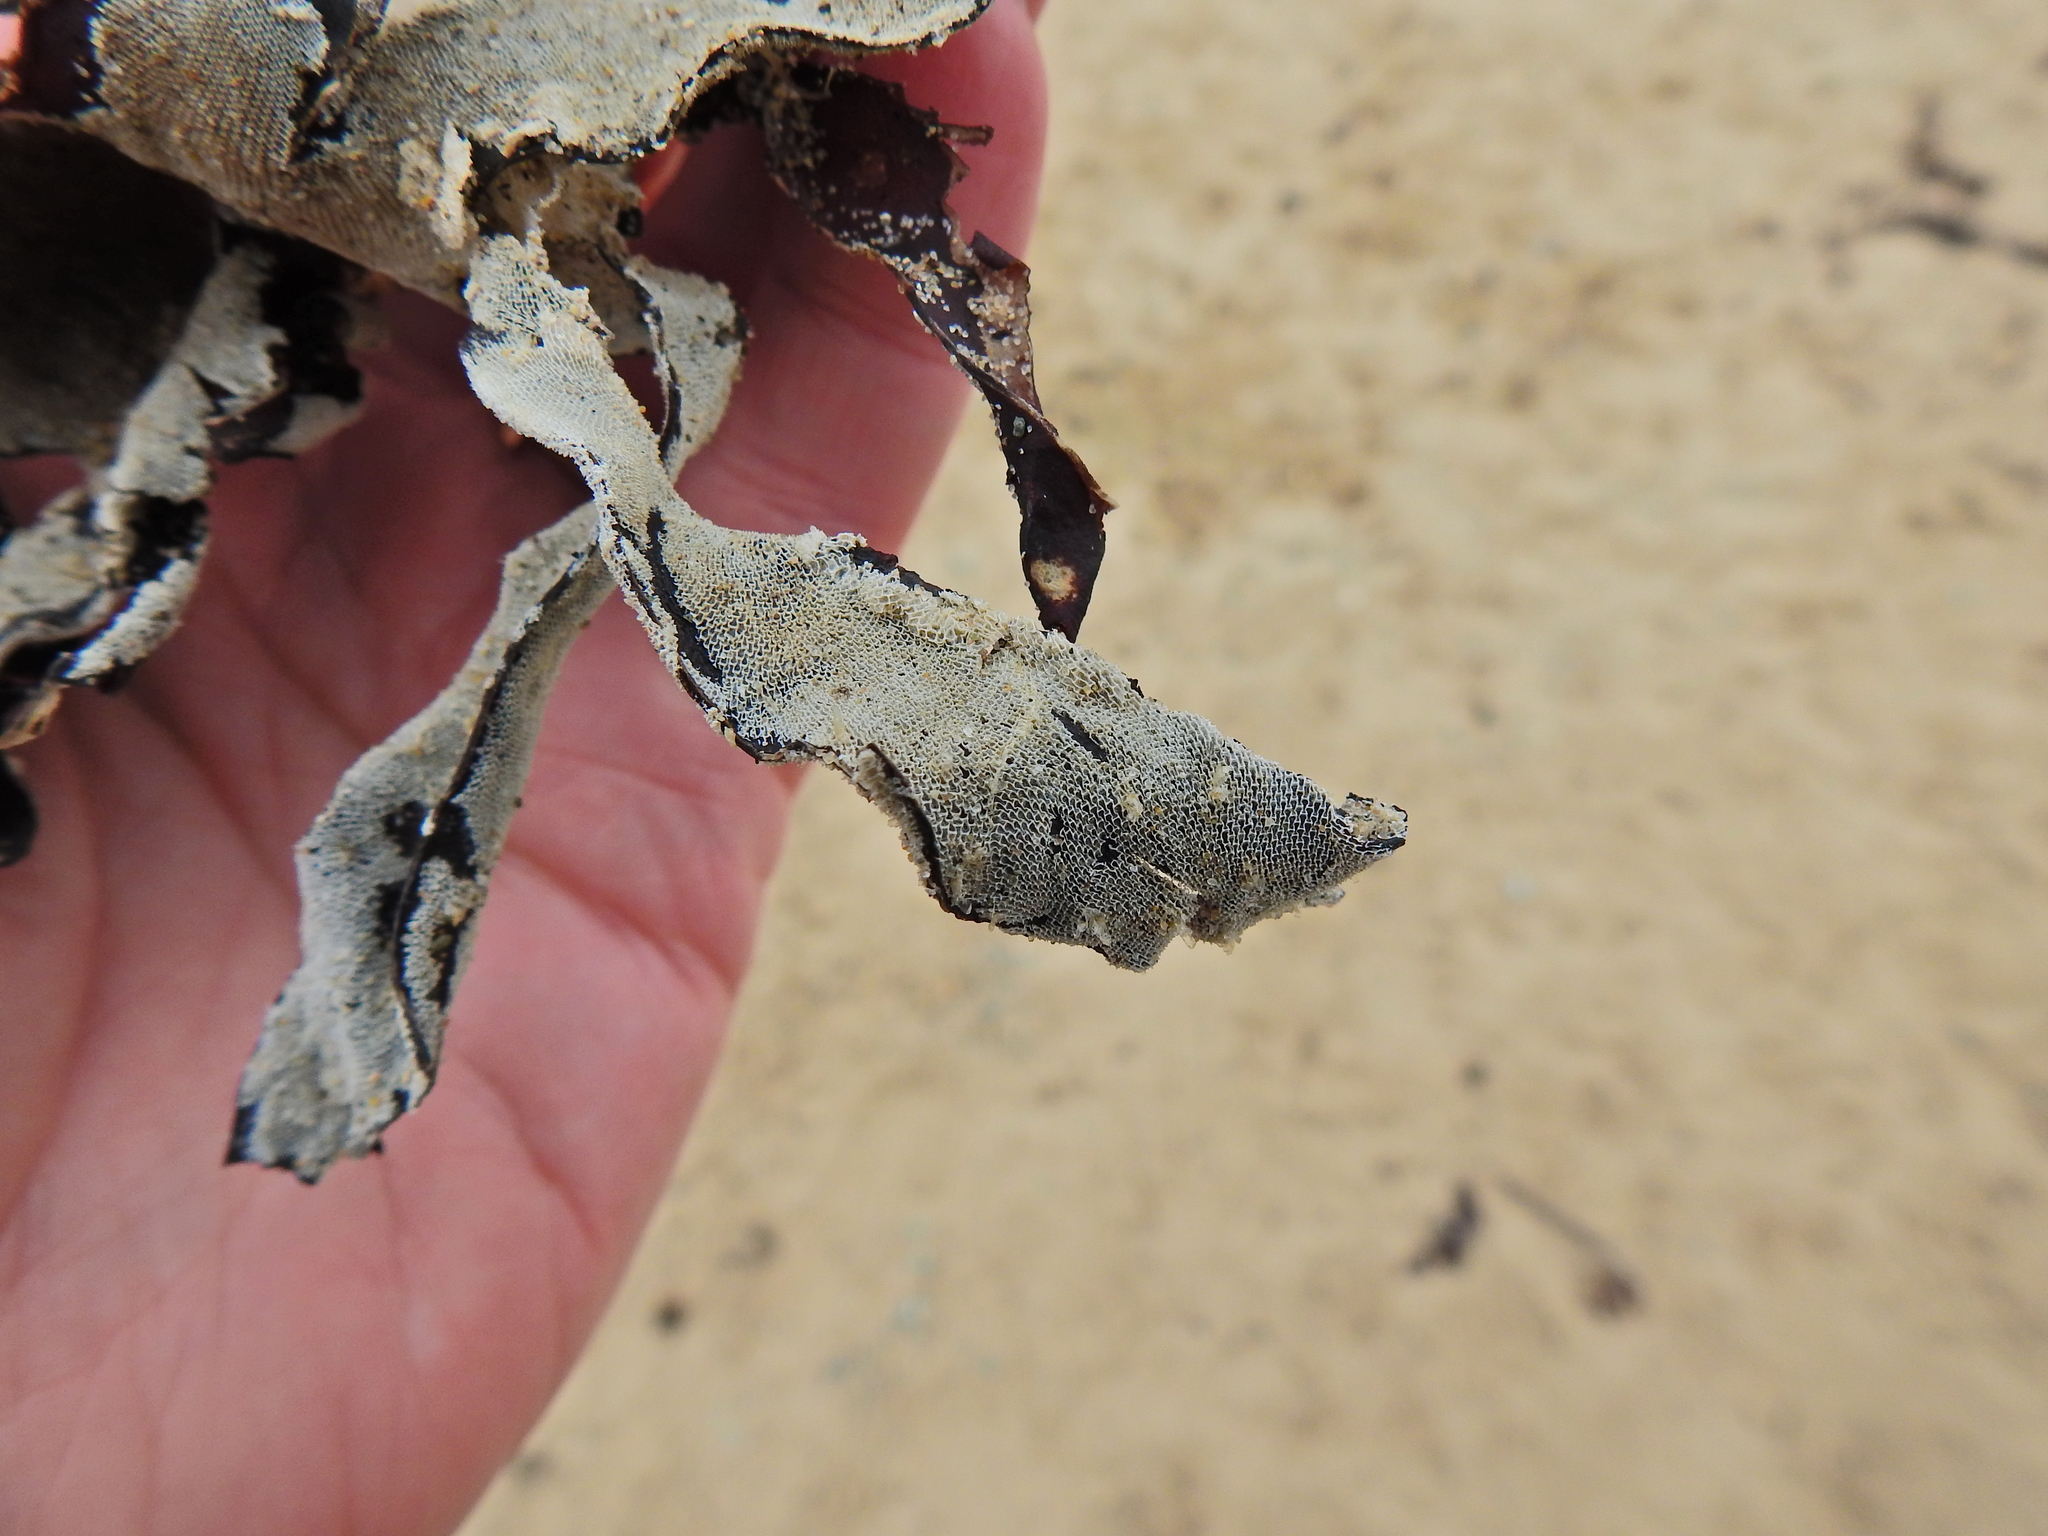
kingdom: Animalia
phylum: Bryozoa
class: Gymnolaemata
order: Cheilostomatida
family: Membraniporidae
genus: Membranipora
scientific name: Membranipora membranacea
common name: Sea mat
